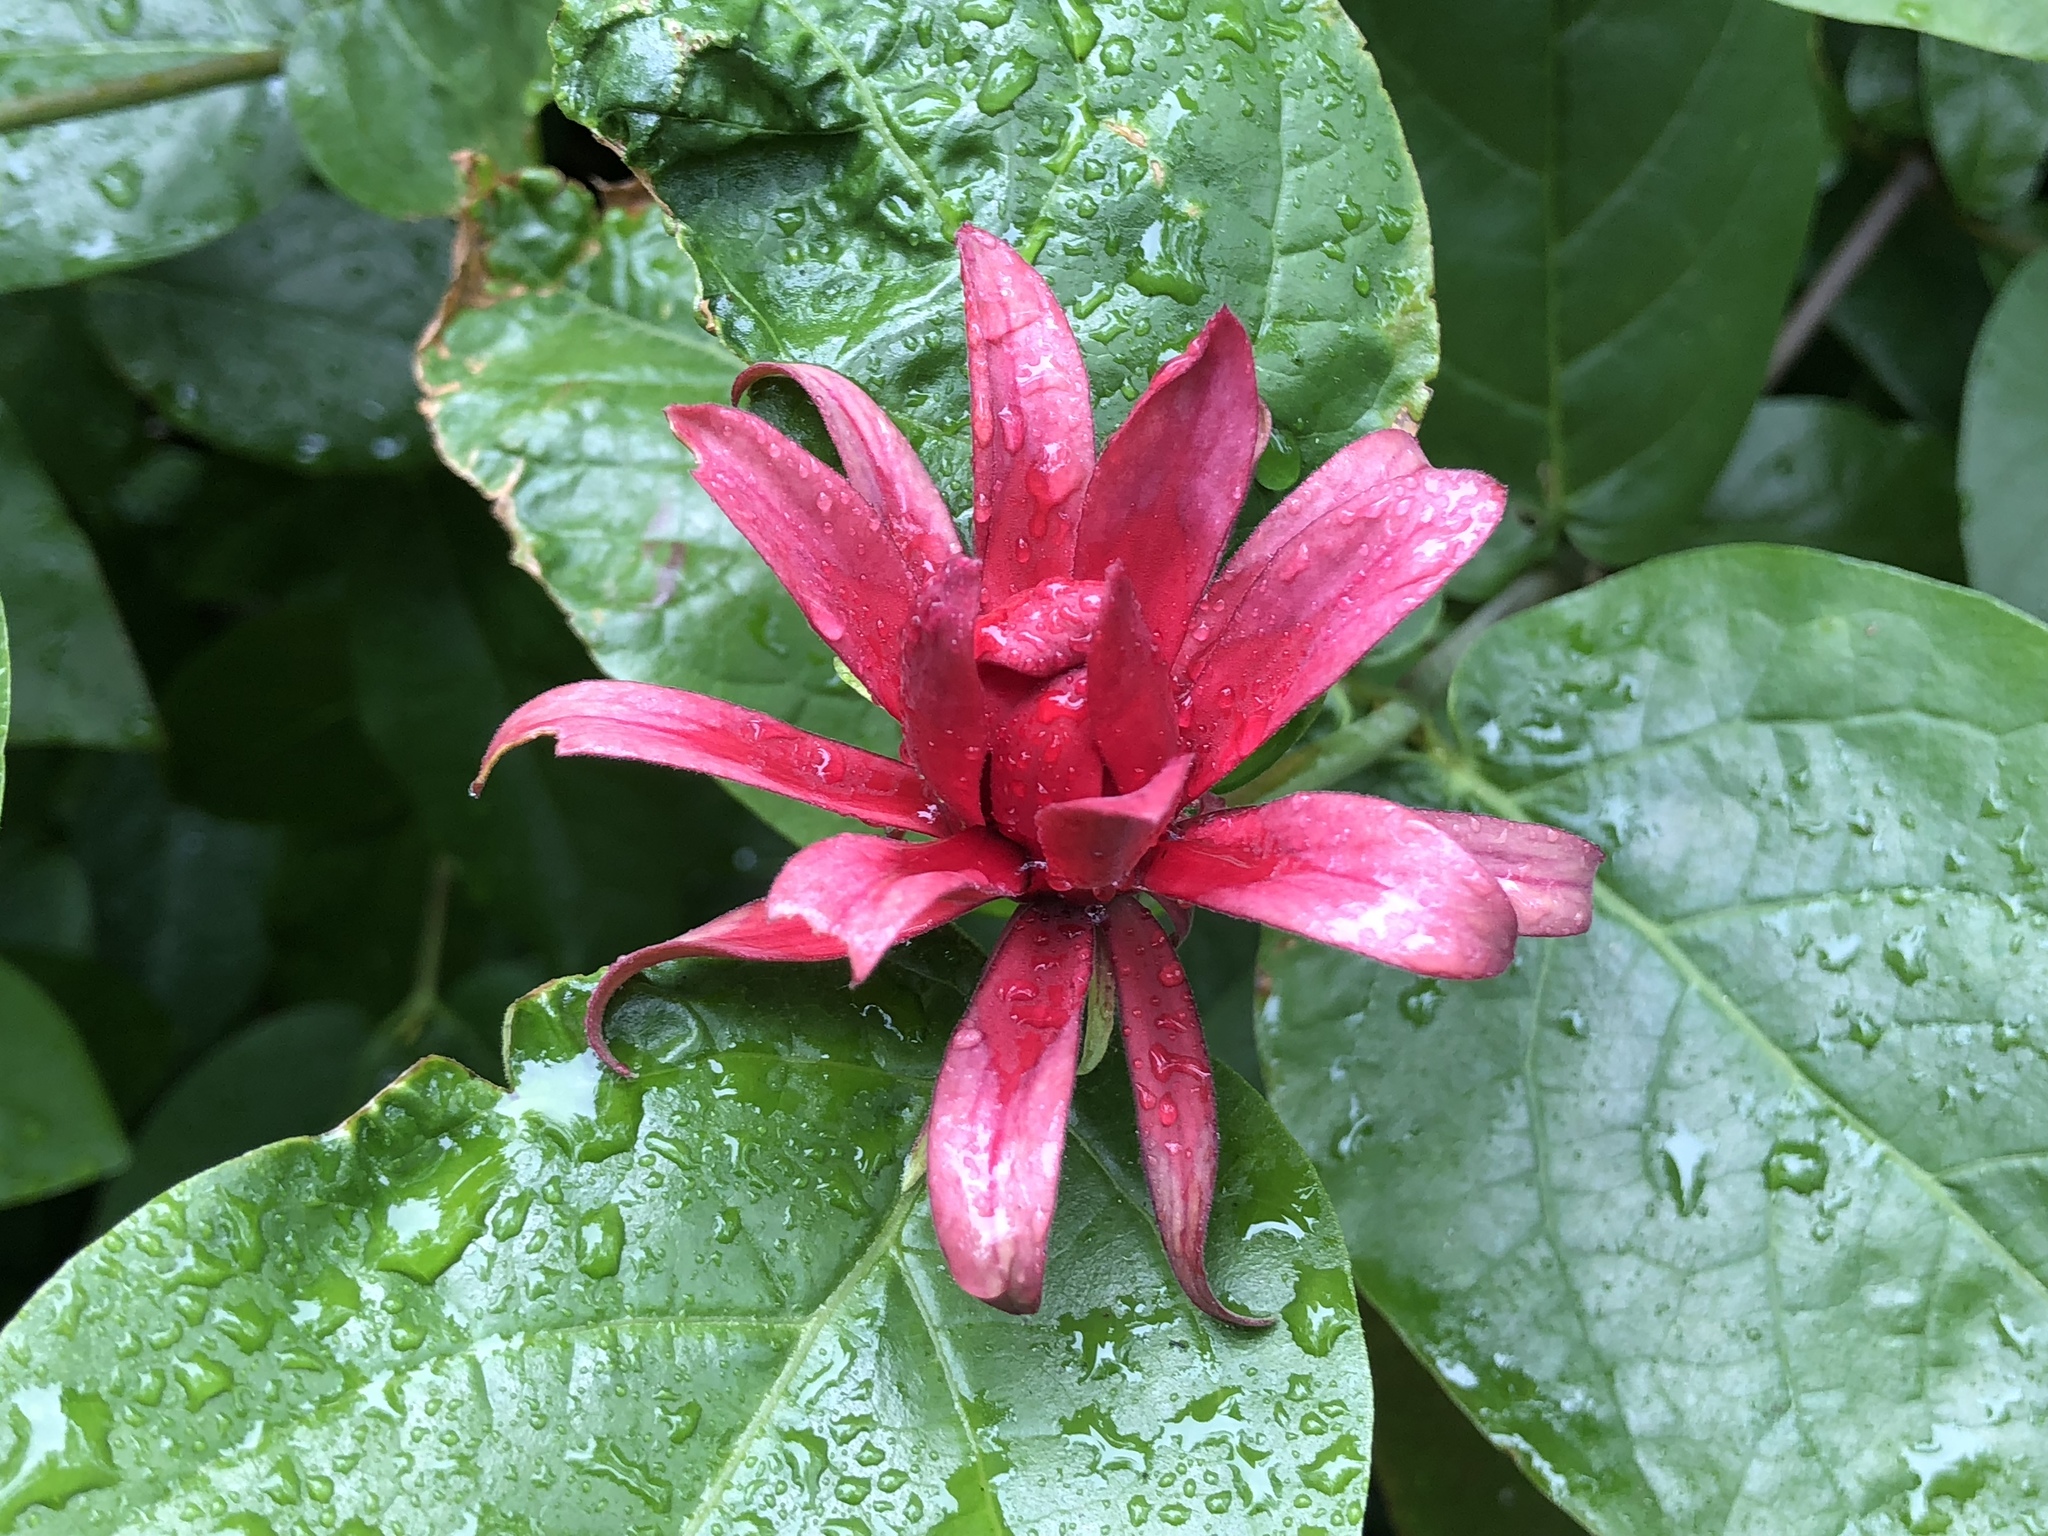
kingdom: Plantae
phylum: Tracheophyta
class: Magnoliopsida
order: Laurales
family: Calycanthaceae
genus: Calycanthus
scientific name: Calycanthus occidentalis
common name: California spicebush
